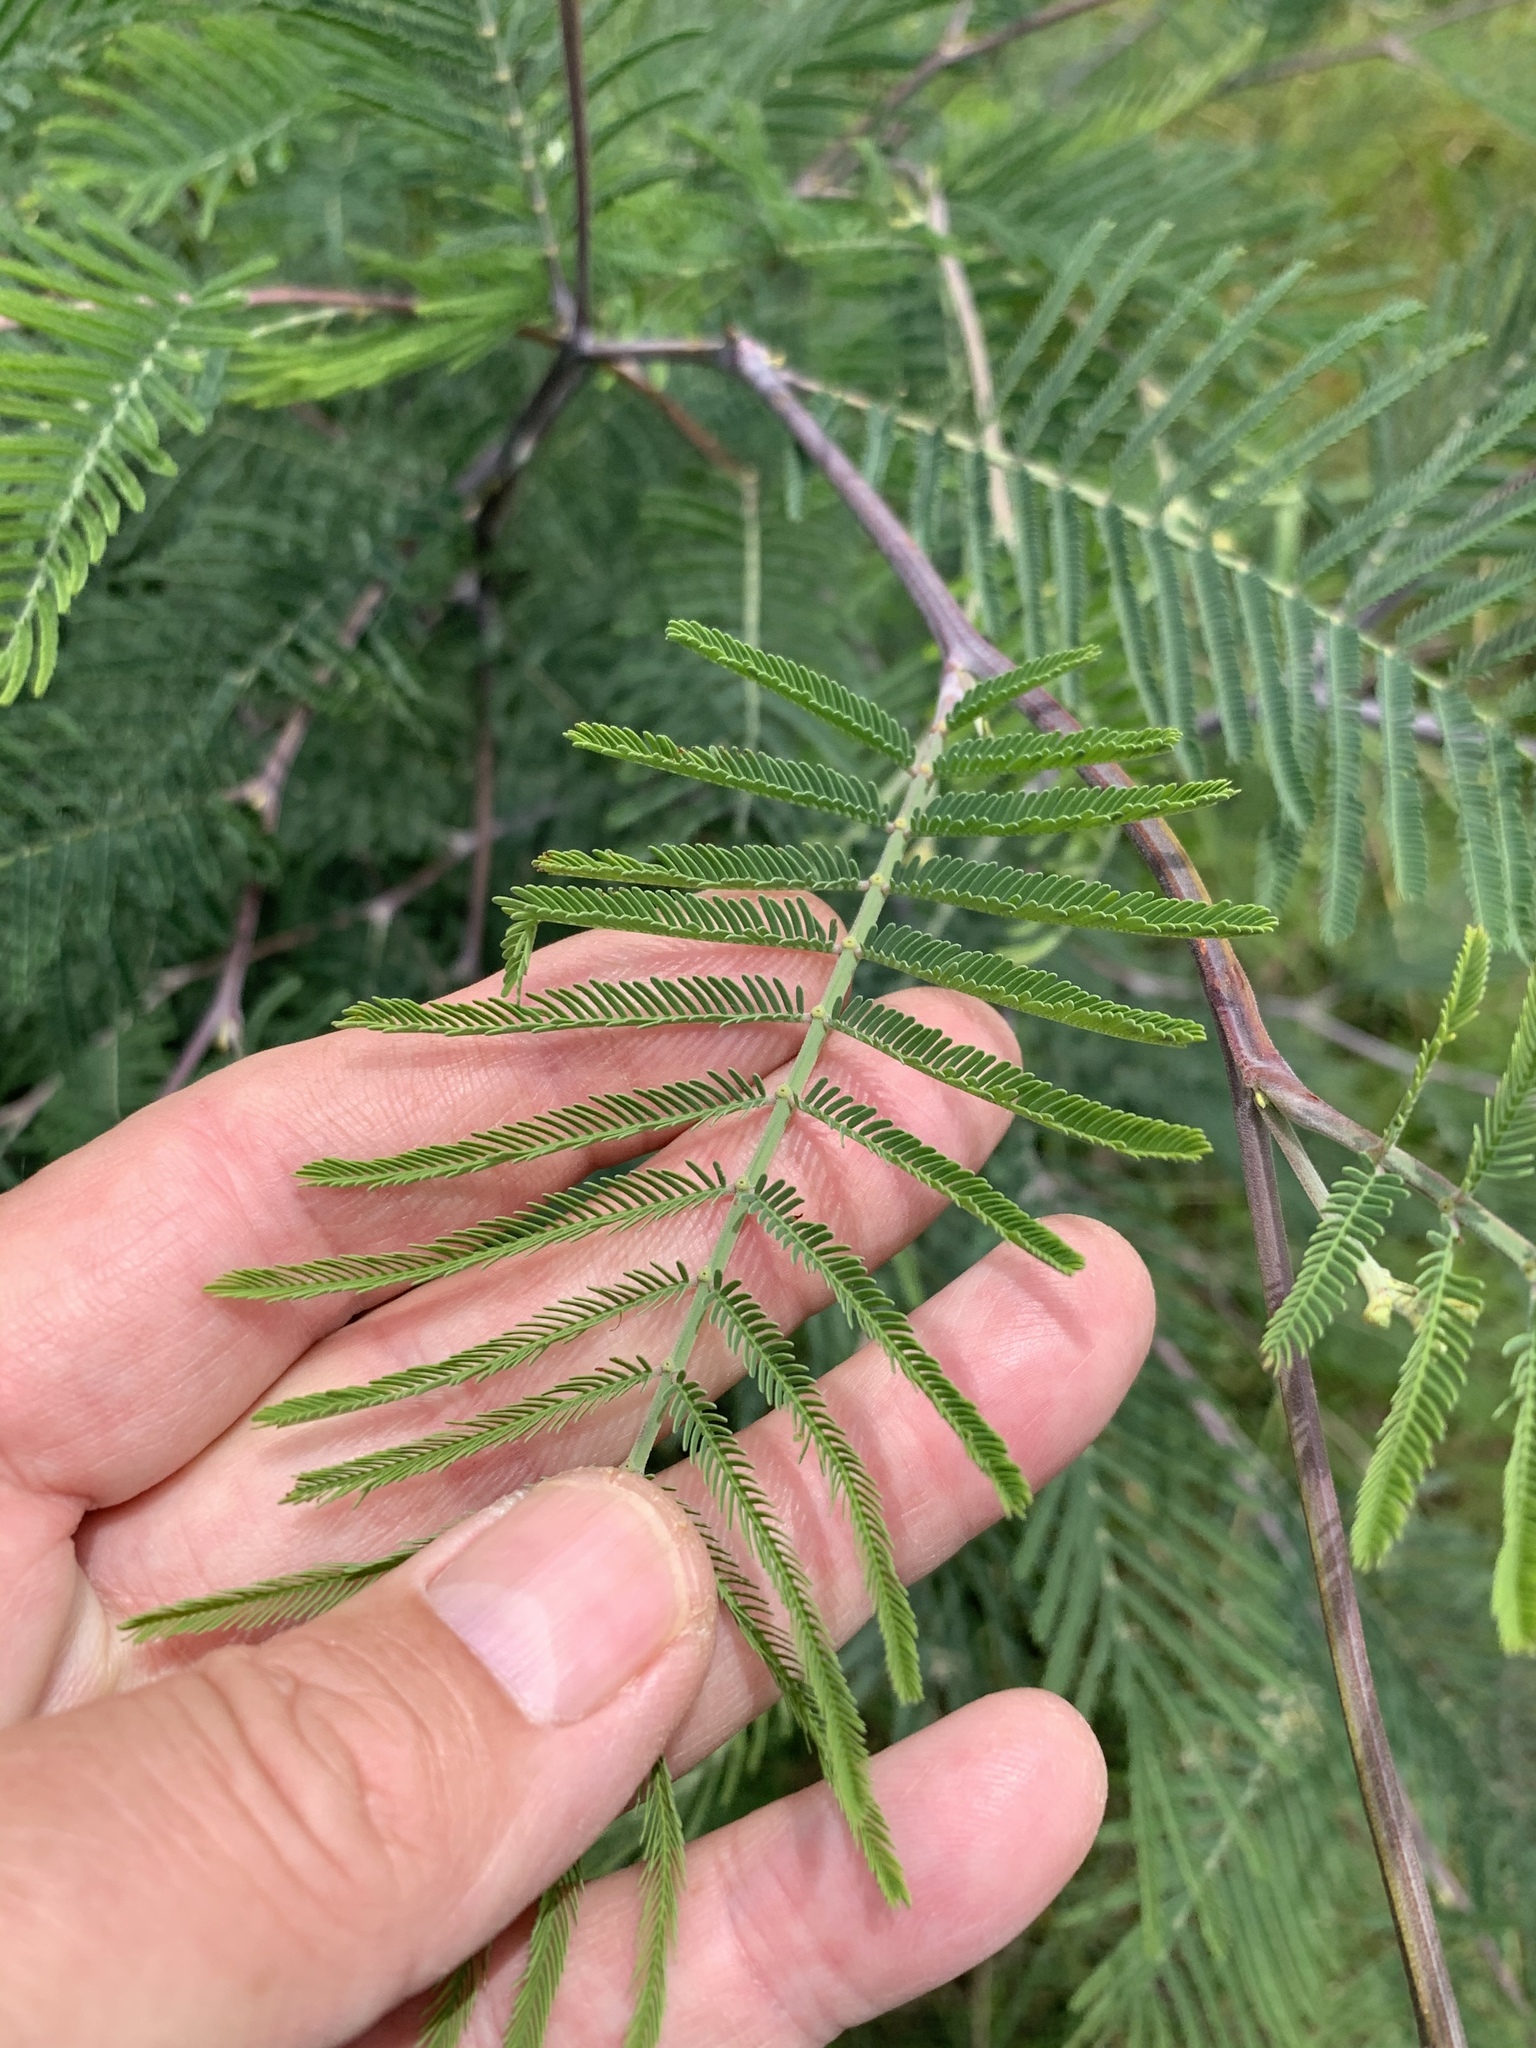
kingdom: Plantae
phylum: Tracheophyta
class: Magnoliopsida
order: Fabales
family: Fabaceae
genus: Acacia
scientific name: Acacia dealbata
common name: Silver wattle
